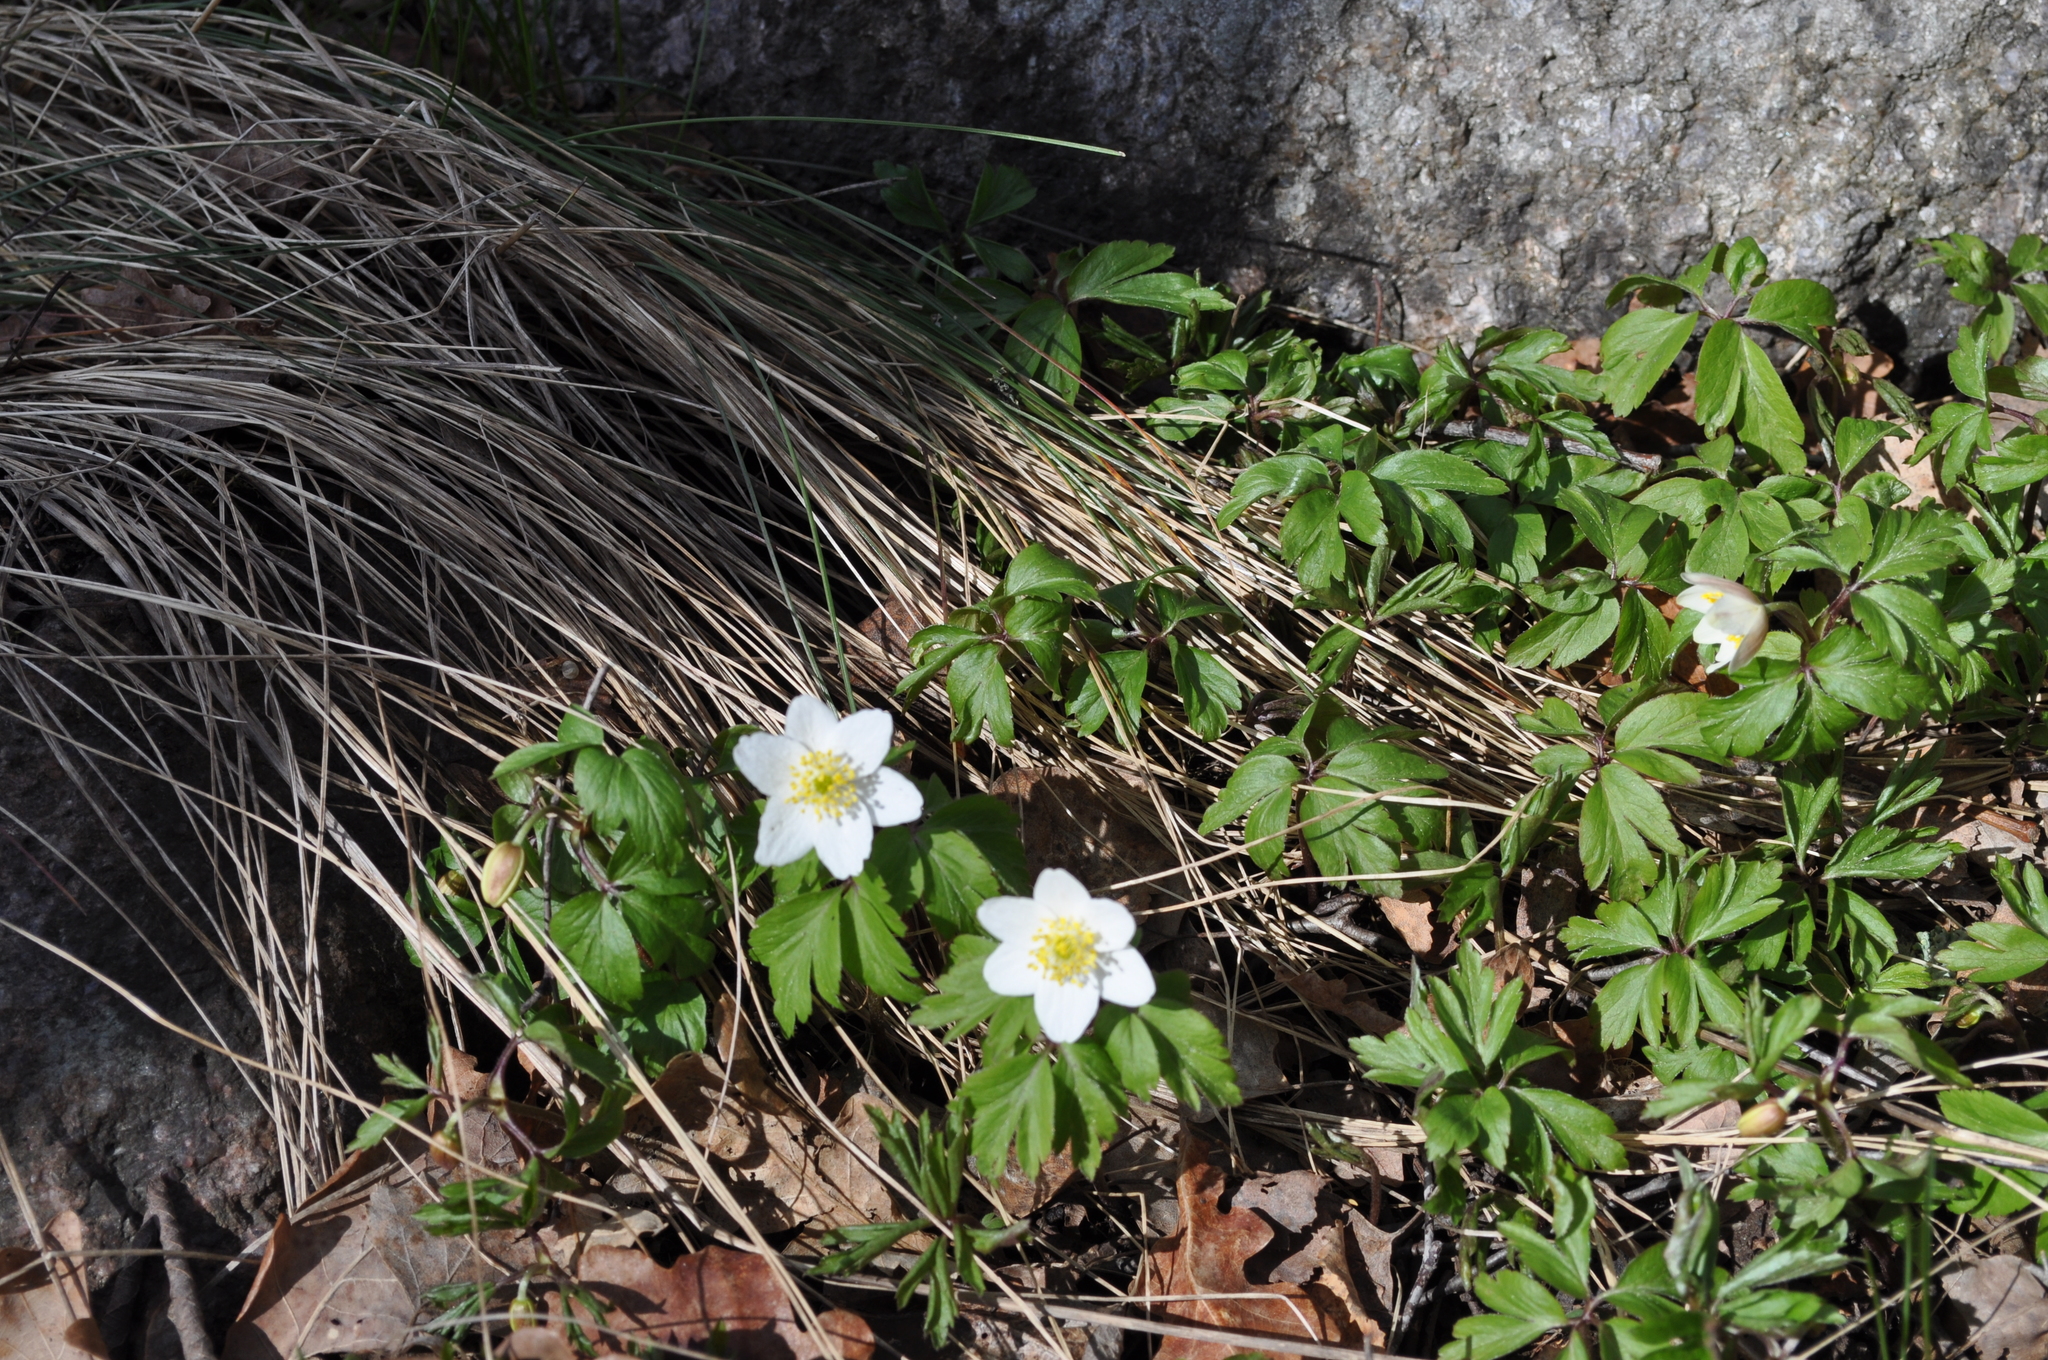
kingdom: Plantae
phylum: Tracheophyta
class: Magnoliopsida
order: Ranunculales
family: Ranunculaceae
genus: Anemone
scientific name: Anemone nemorosa
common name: Wood anemone
